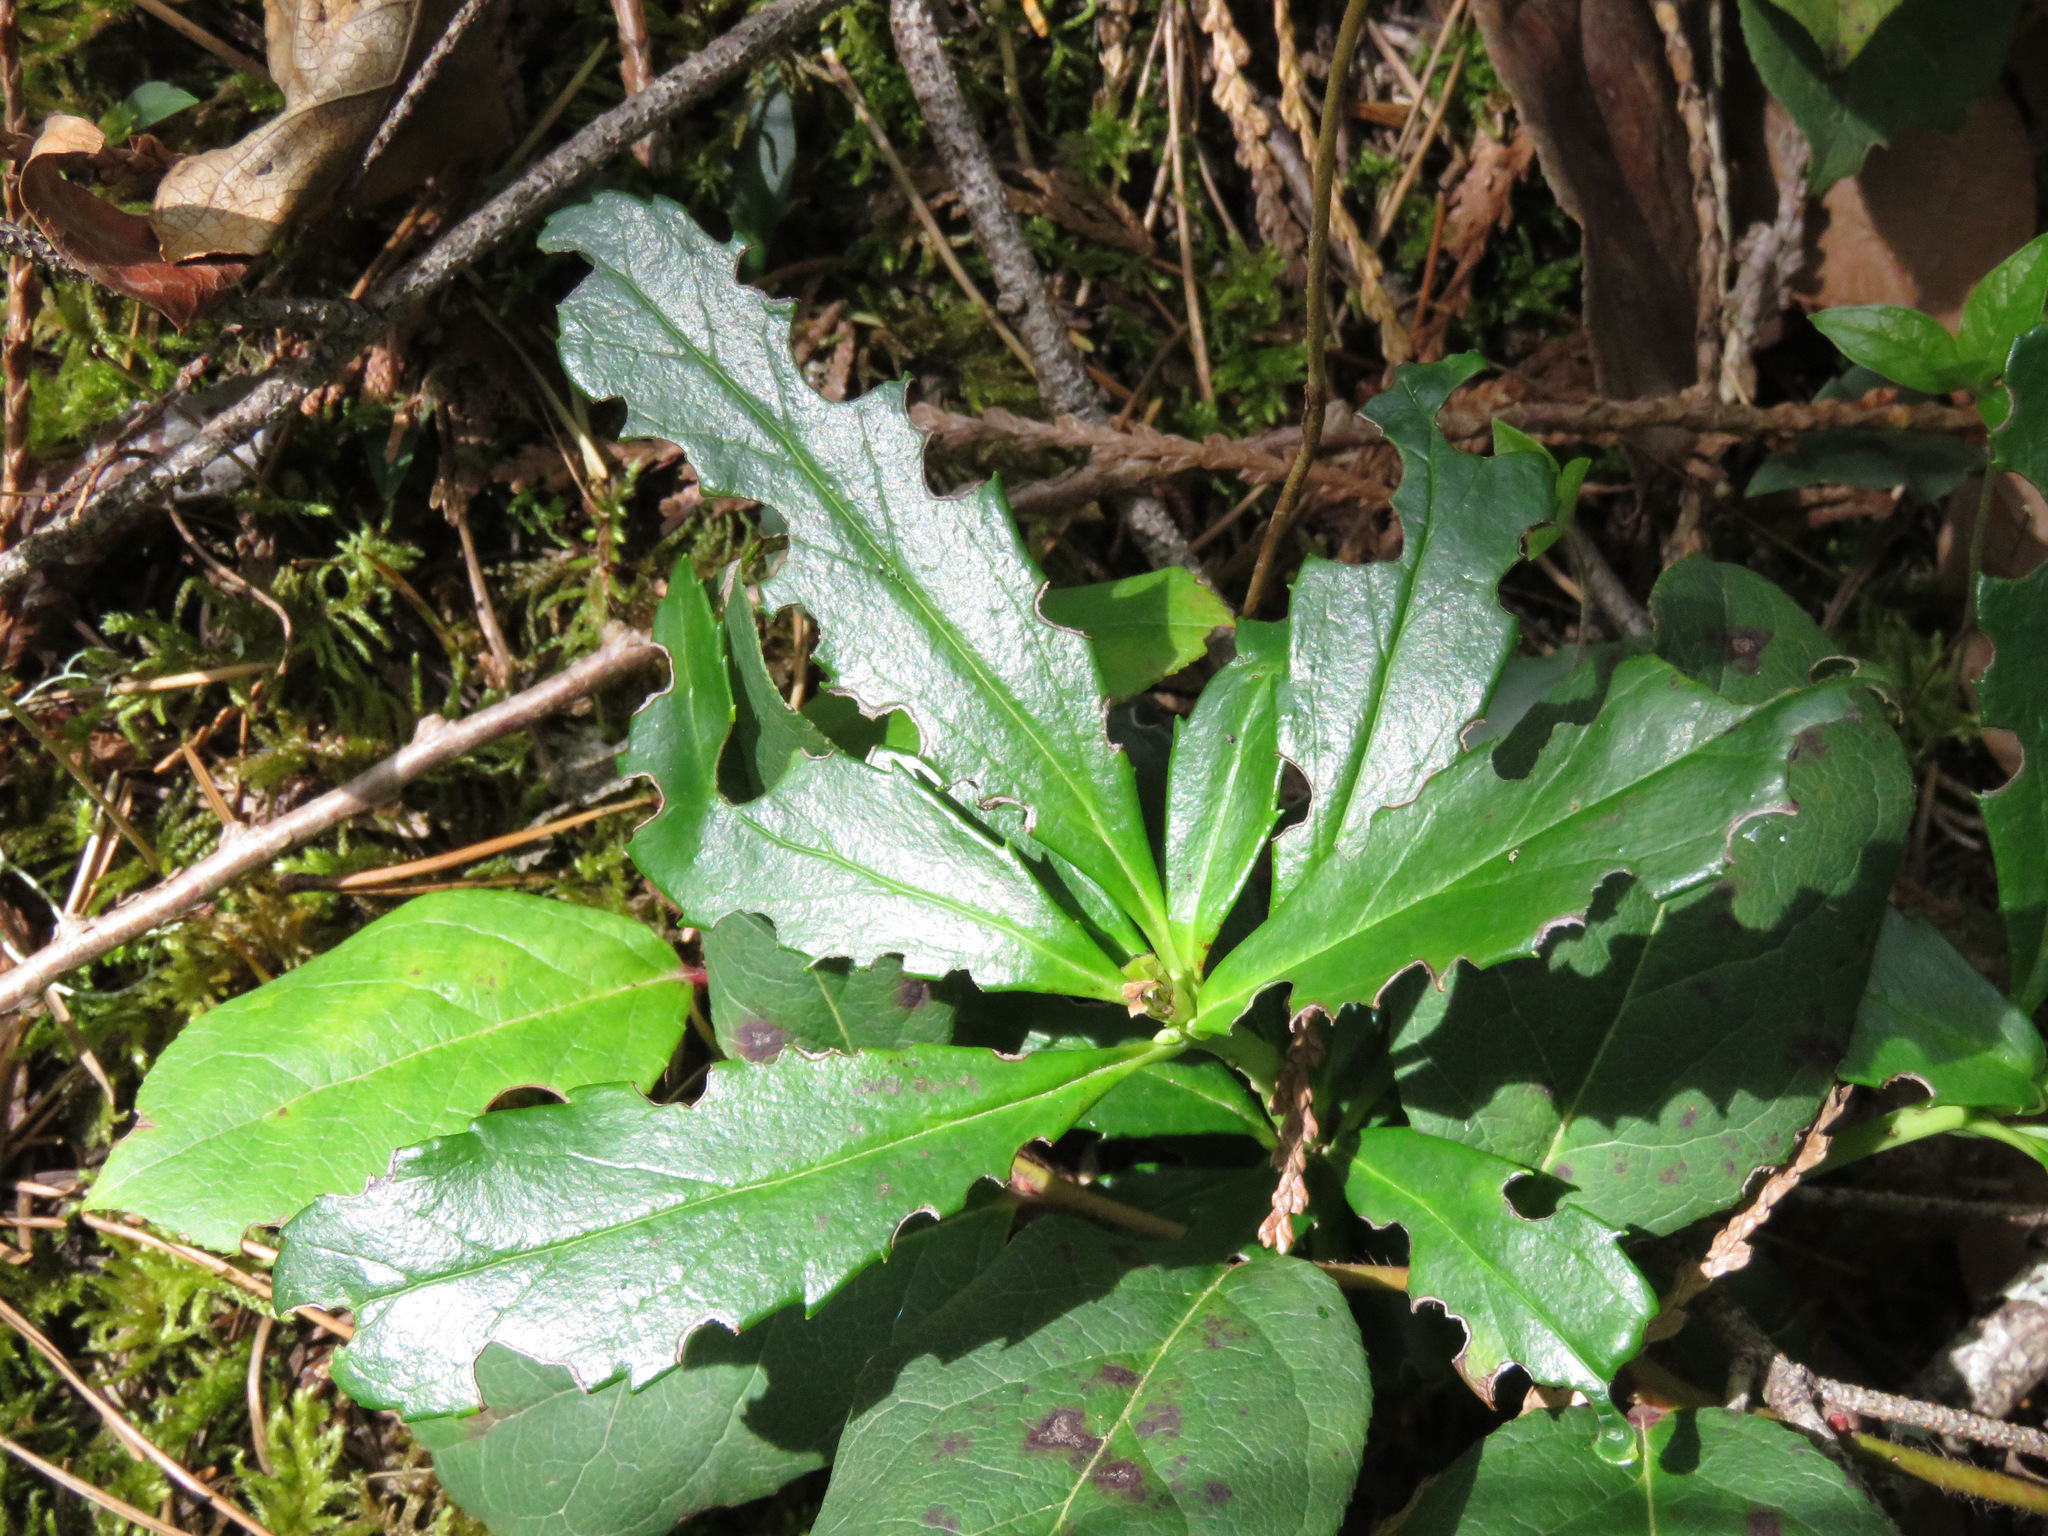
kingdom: Plantae
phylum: Tracheophyta
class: Magnoliopsida
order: Ericales
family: Ericaceae
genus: Chimaphila
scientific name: Chimaphila umbellata
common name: Pipsissewa
